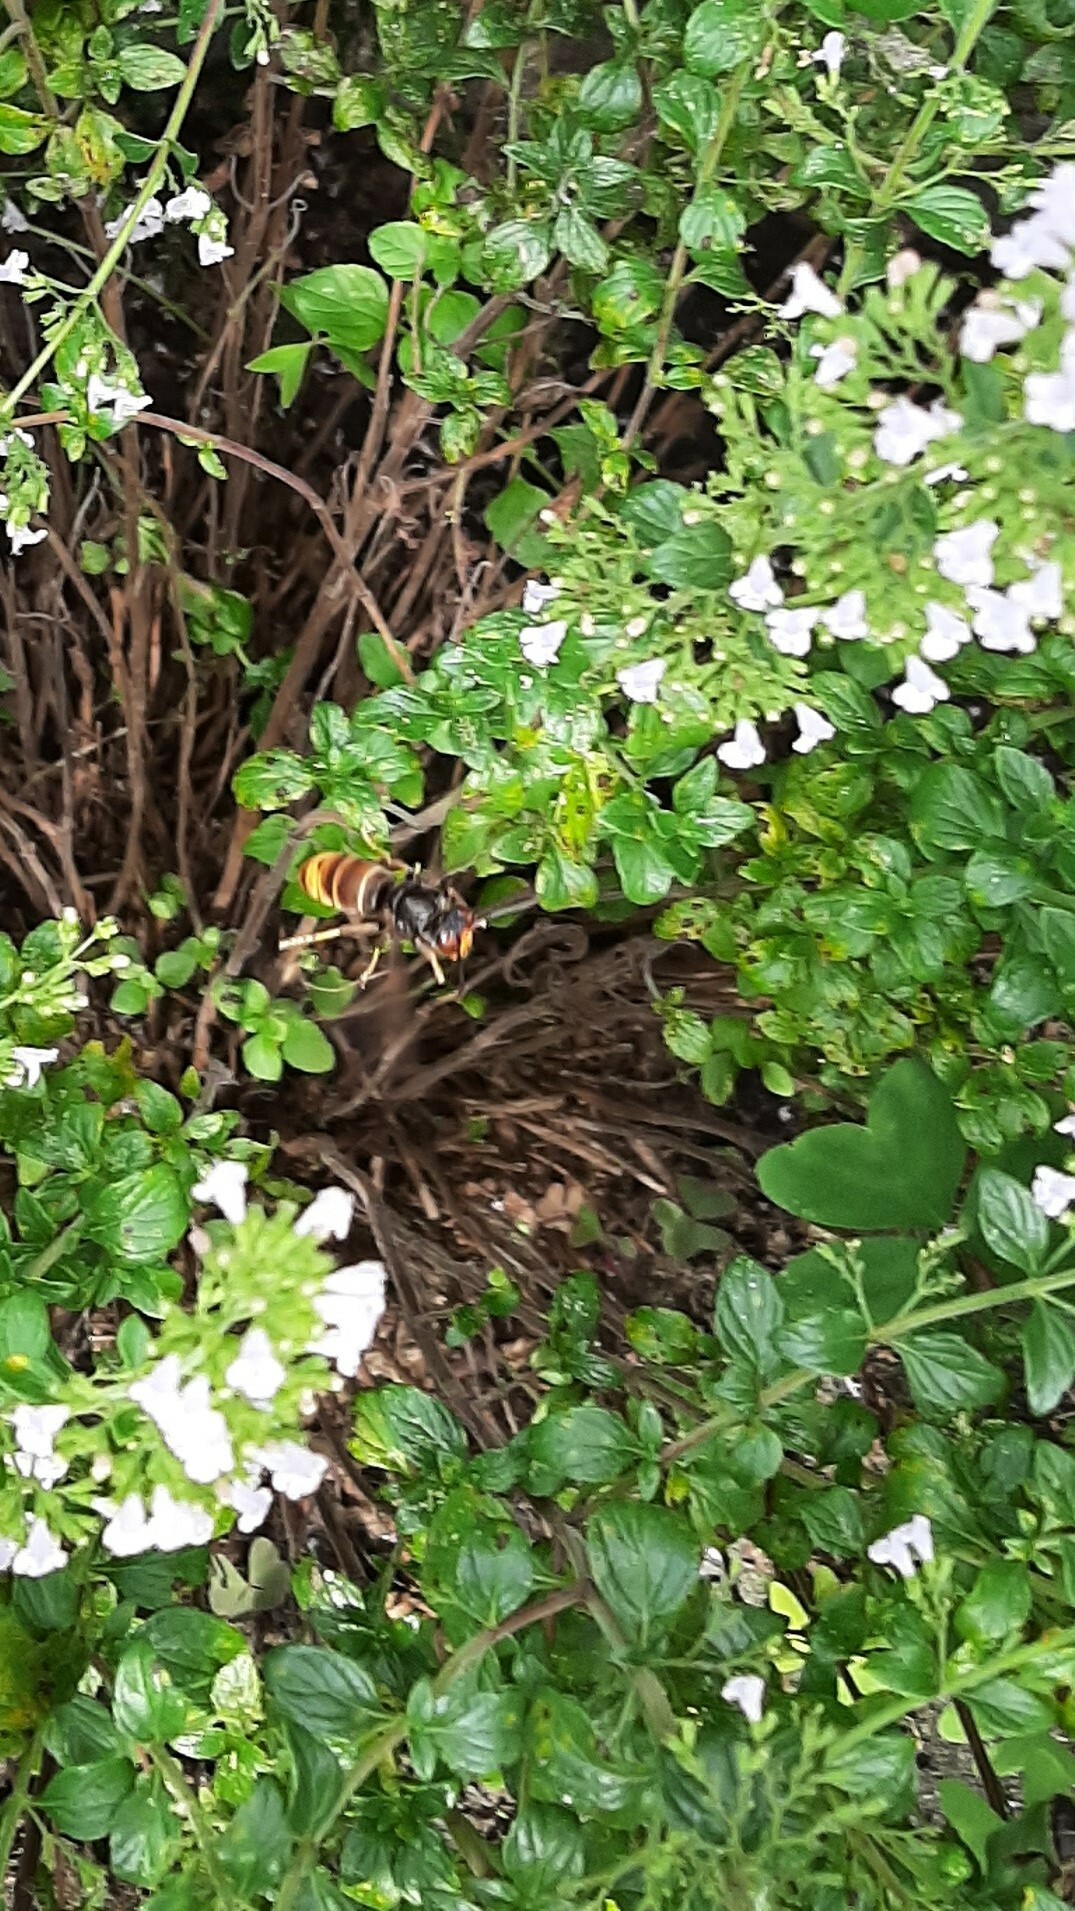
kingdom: Animalia
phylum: Arthropoda
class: Insecta
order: Hymenoptera
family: Vespidae
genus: Vespa
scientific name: Vespa velutina
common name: Asian hornet
